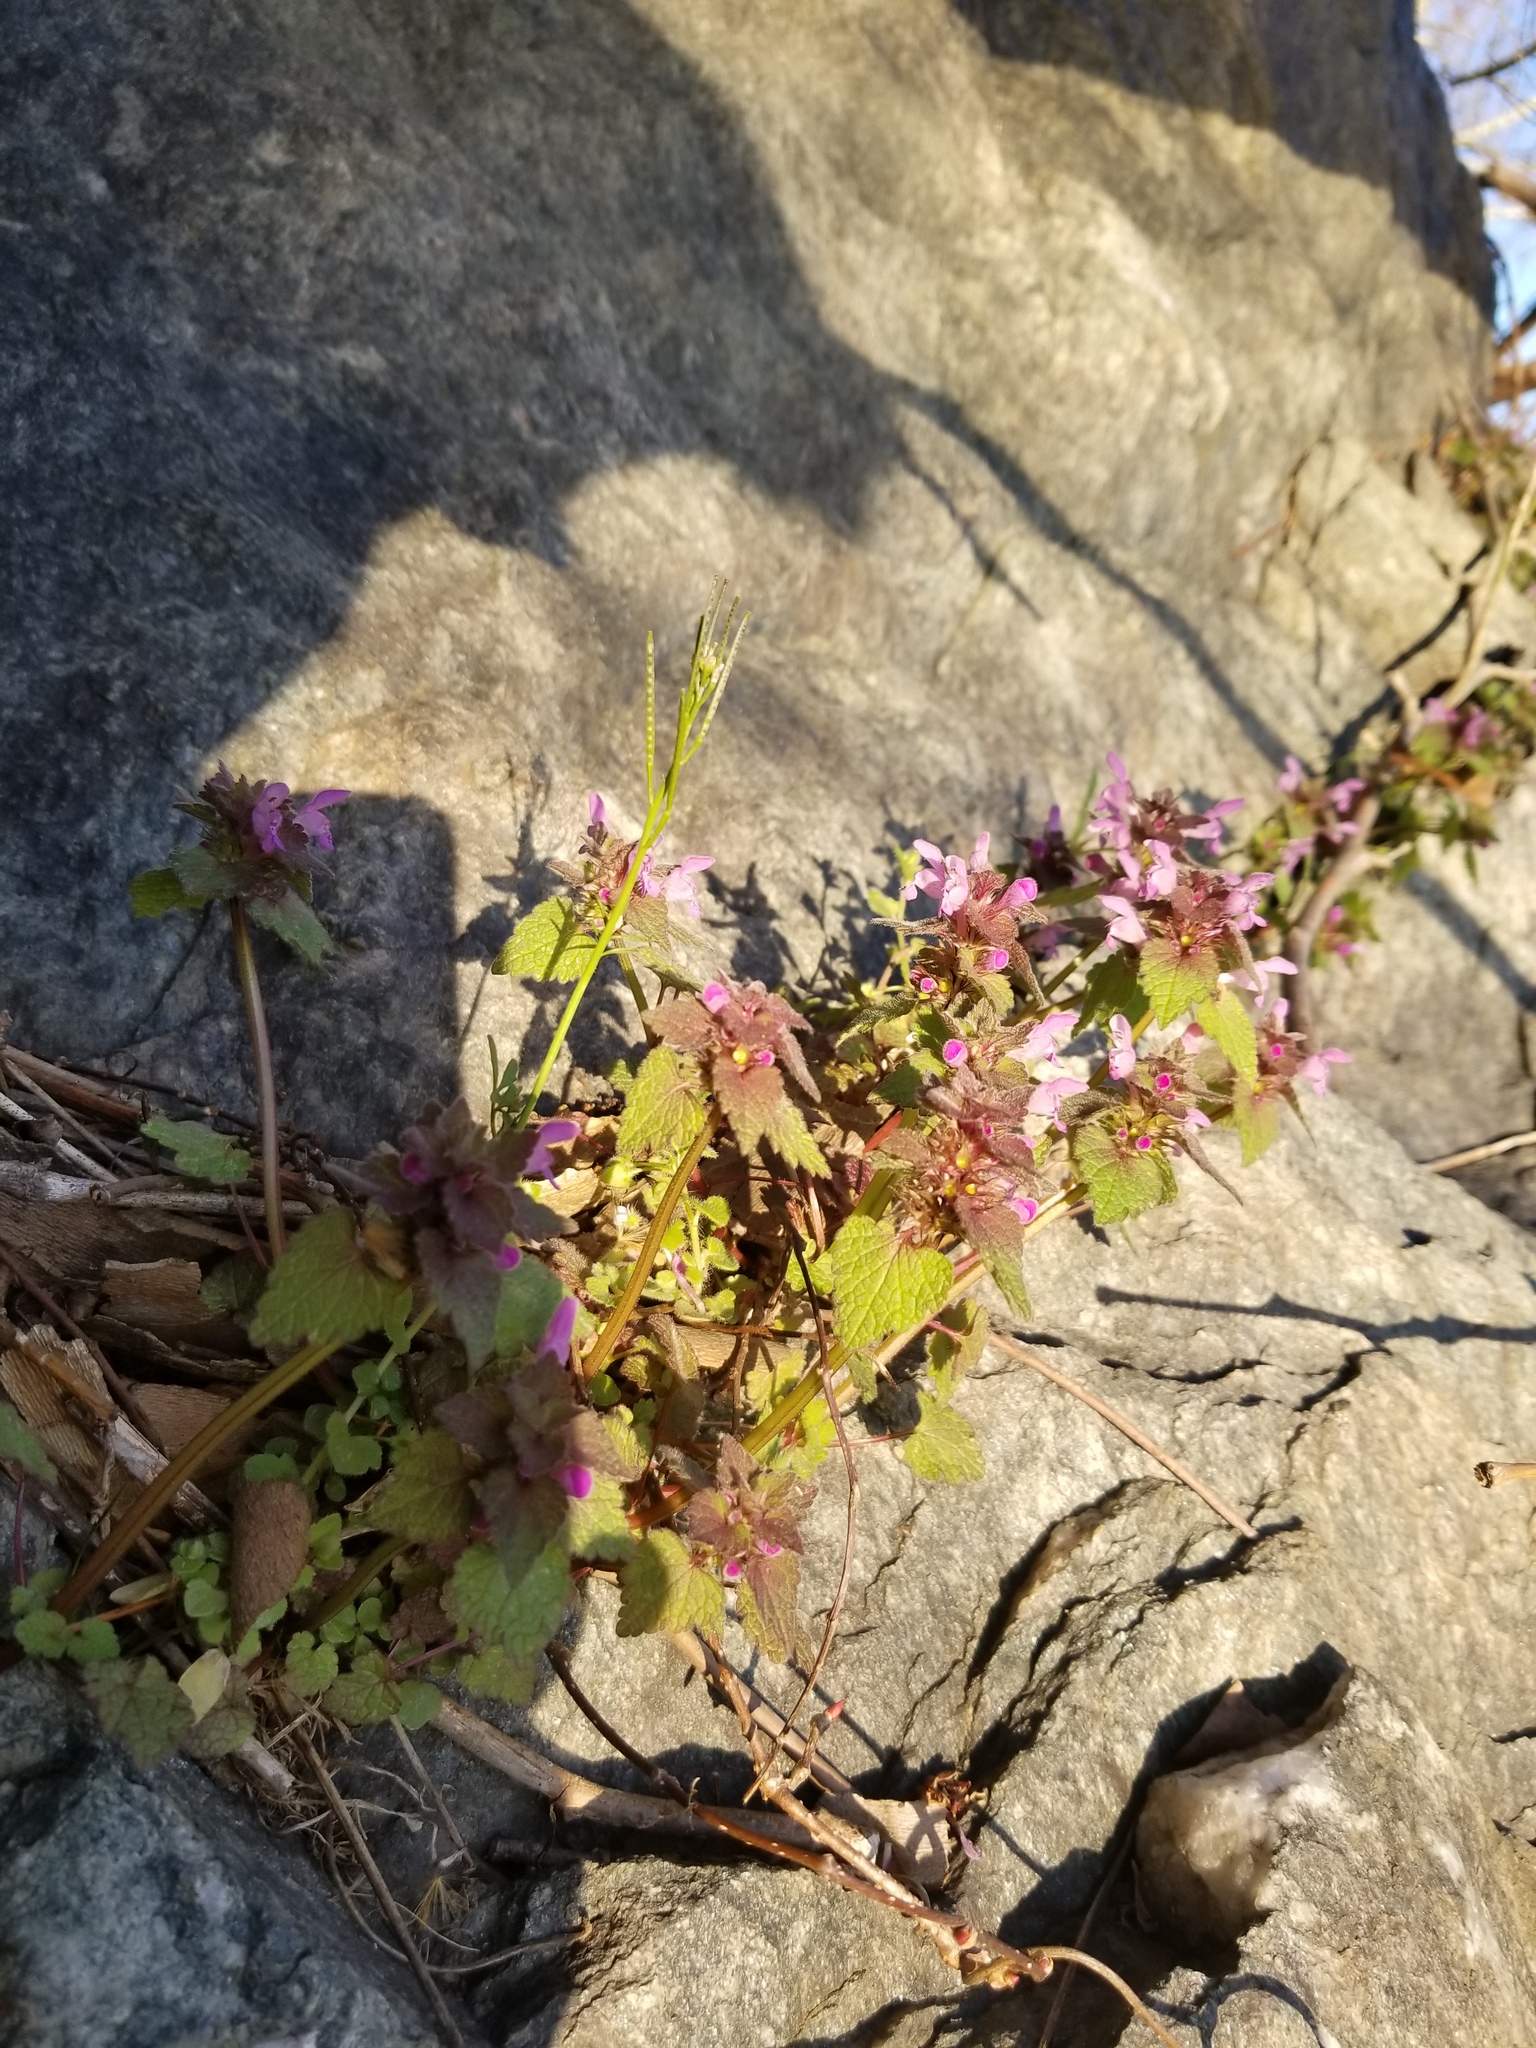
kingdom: Plantae
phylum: Tracheophyta
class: Magnoliopsida
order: Lamiales
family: Lamiaceae
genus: Lamium
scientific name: Lamium purpureum
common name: Red dead-nettle
